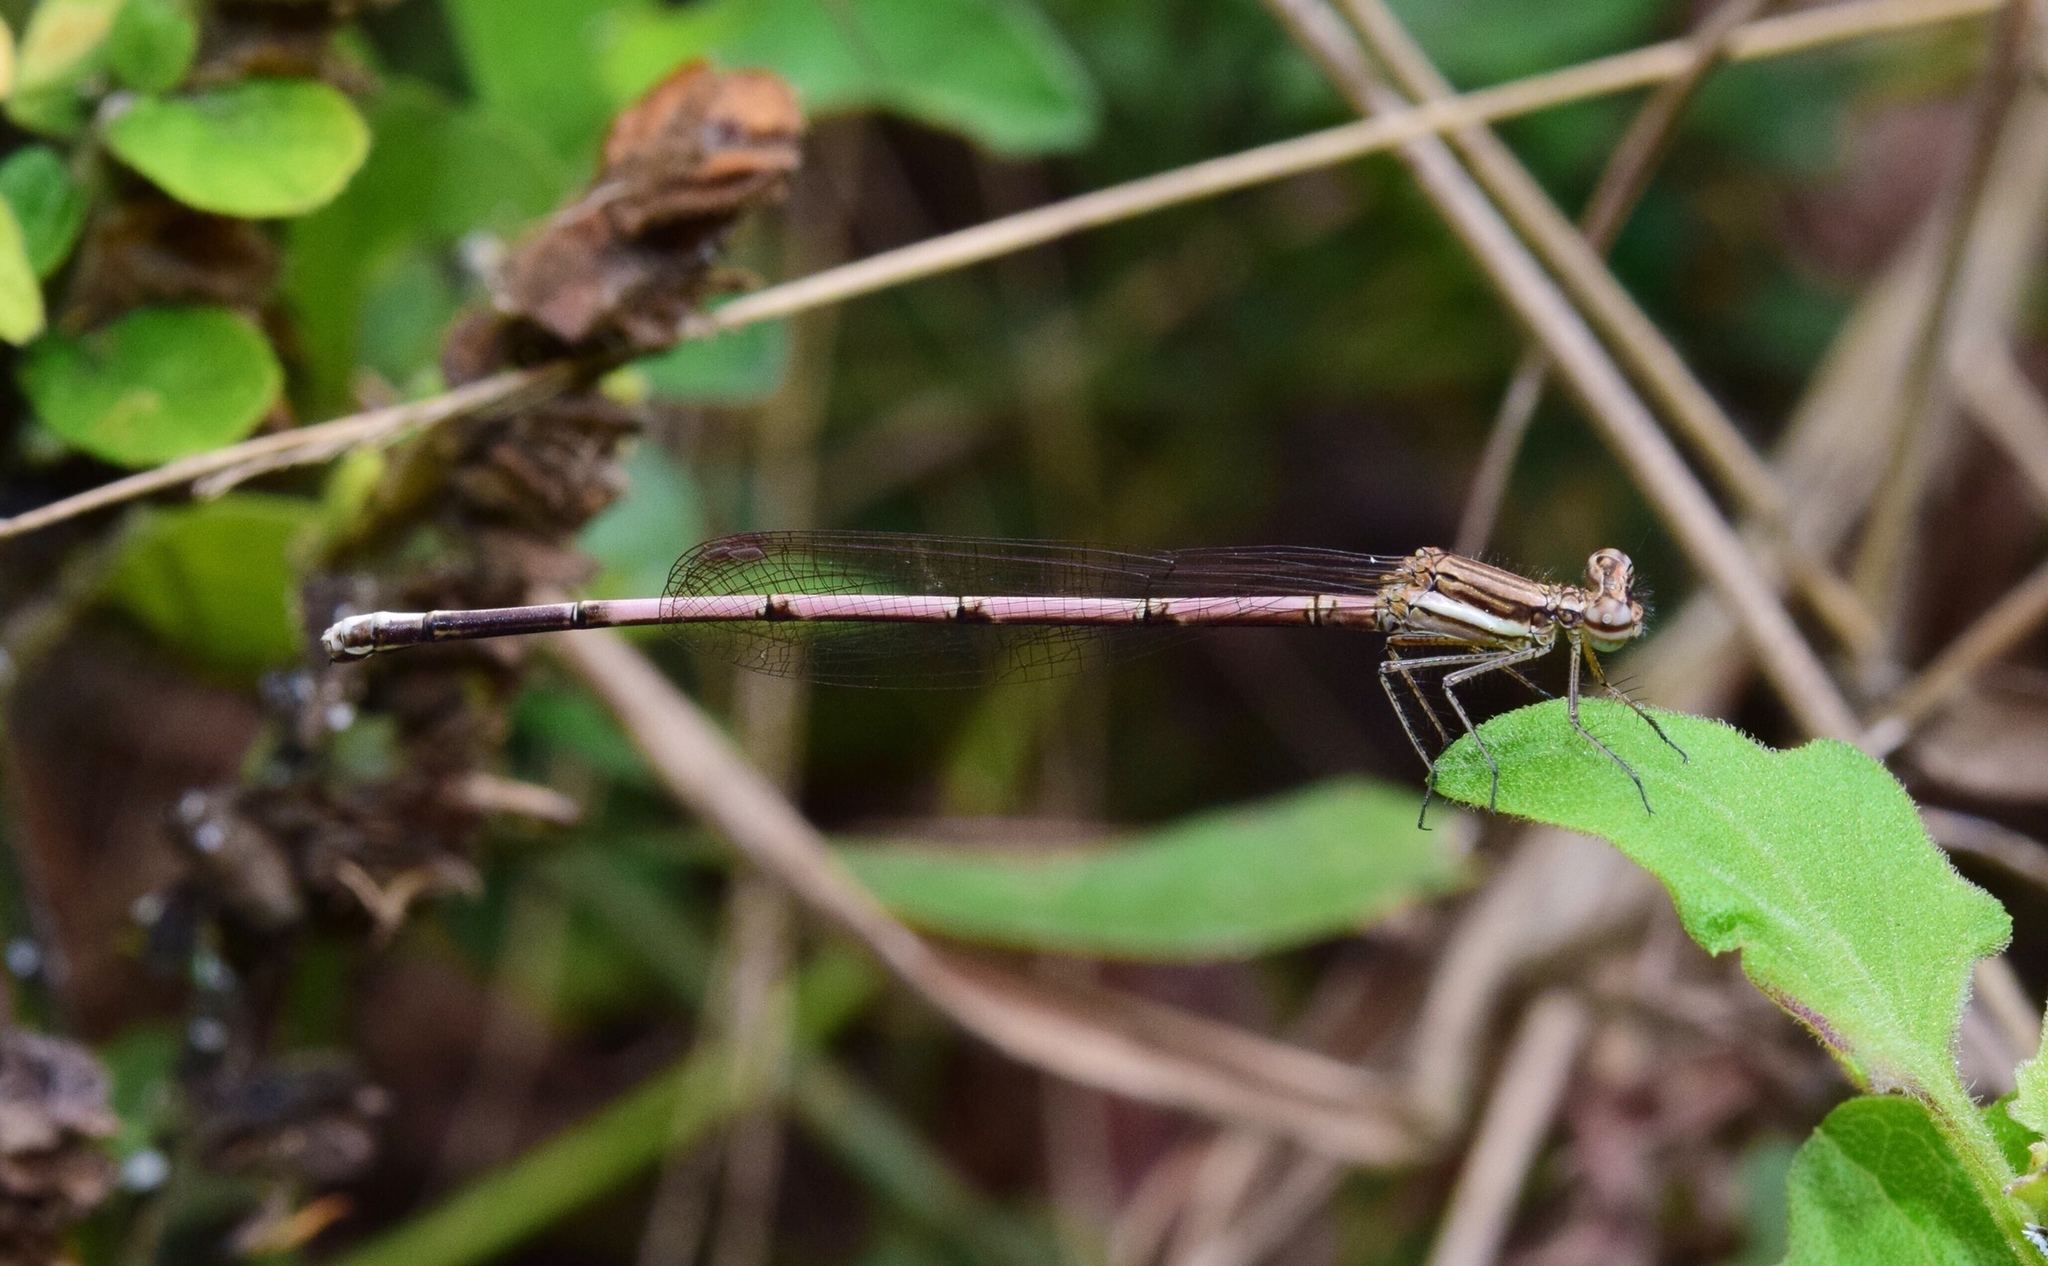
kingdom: Animalia
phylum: Arthropoda
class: Insecta
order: Odonata
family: Platycnemididae
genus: Elattoneura
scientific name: Elattoneura glauca
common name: Common threadtail
